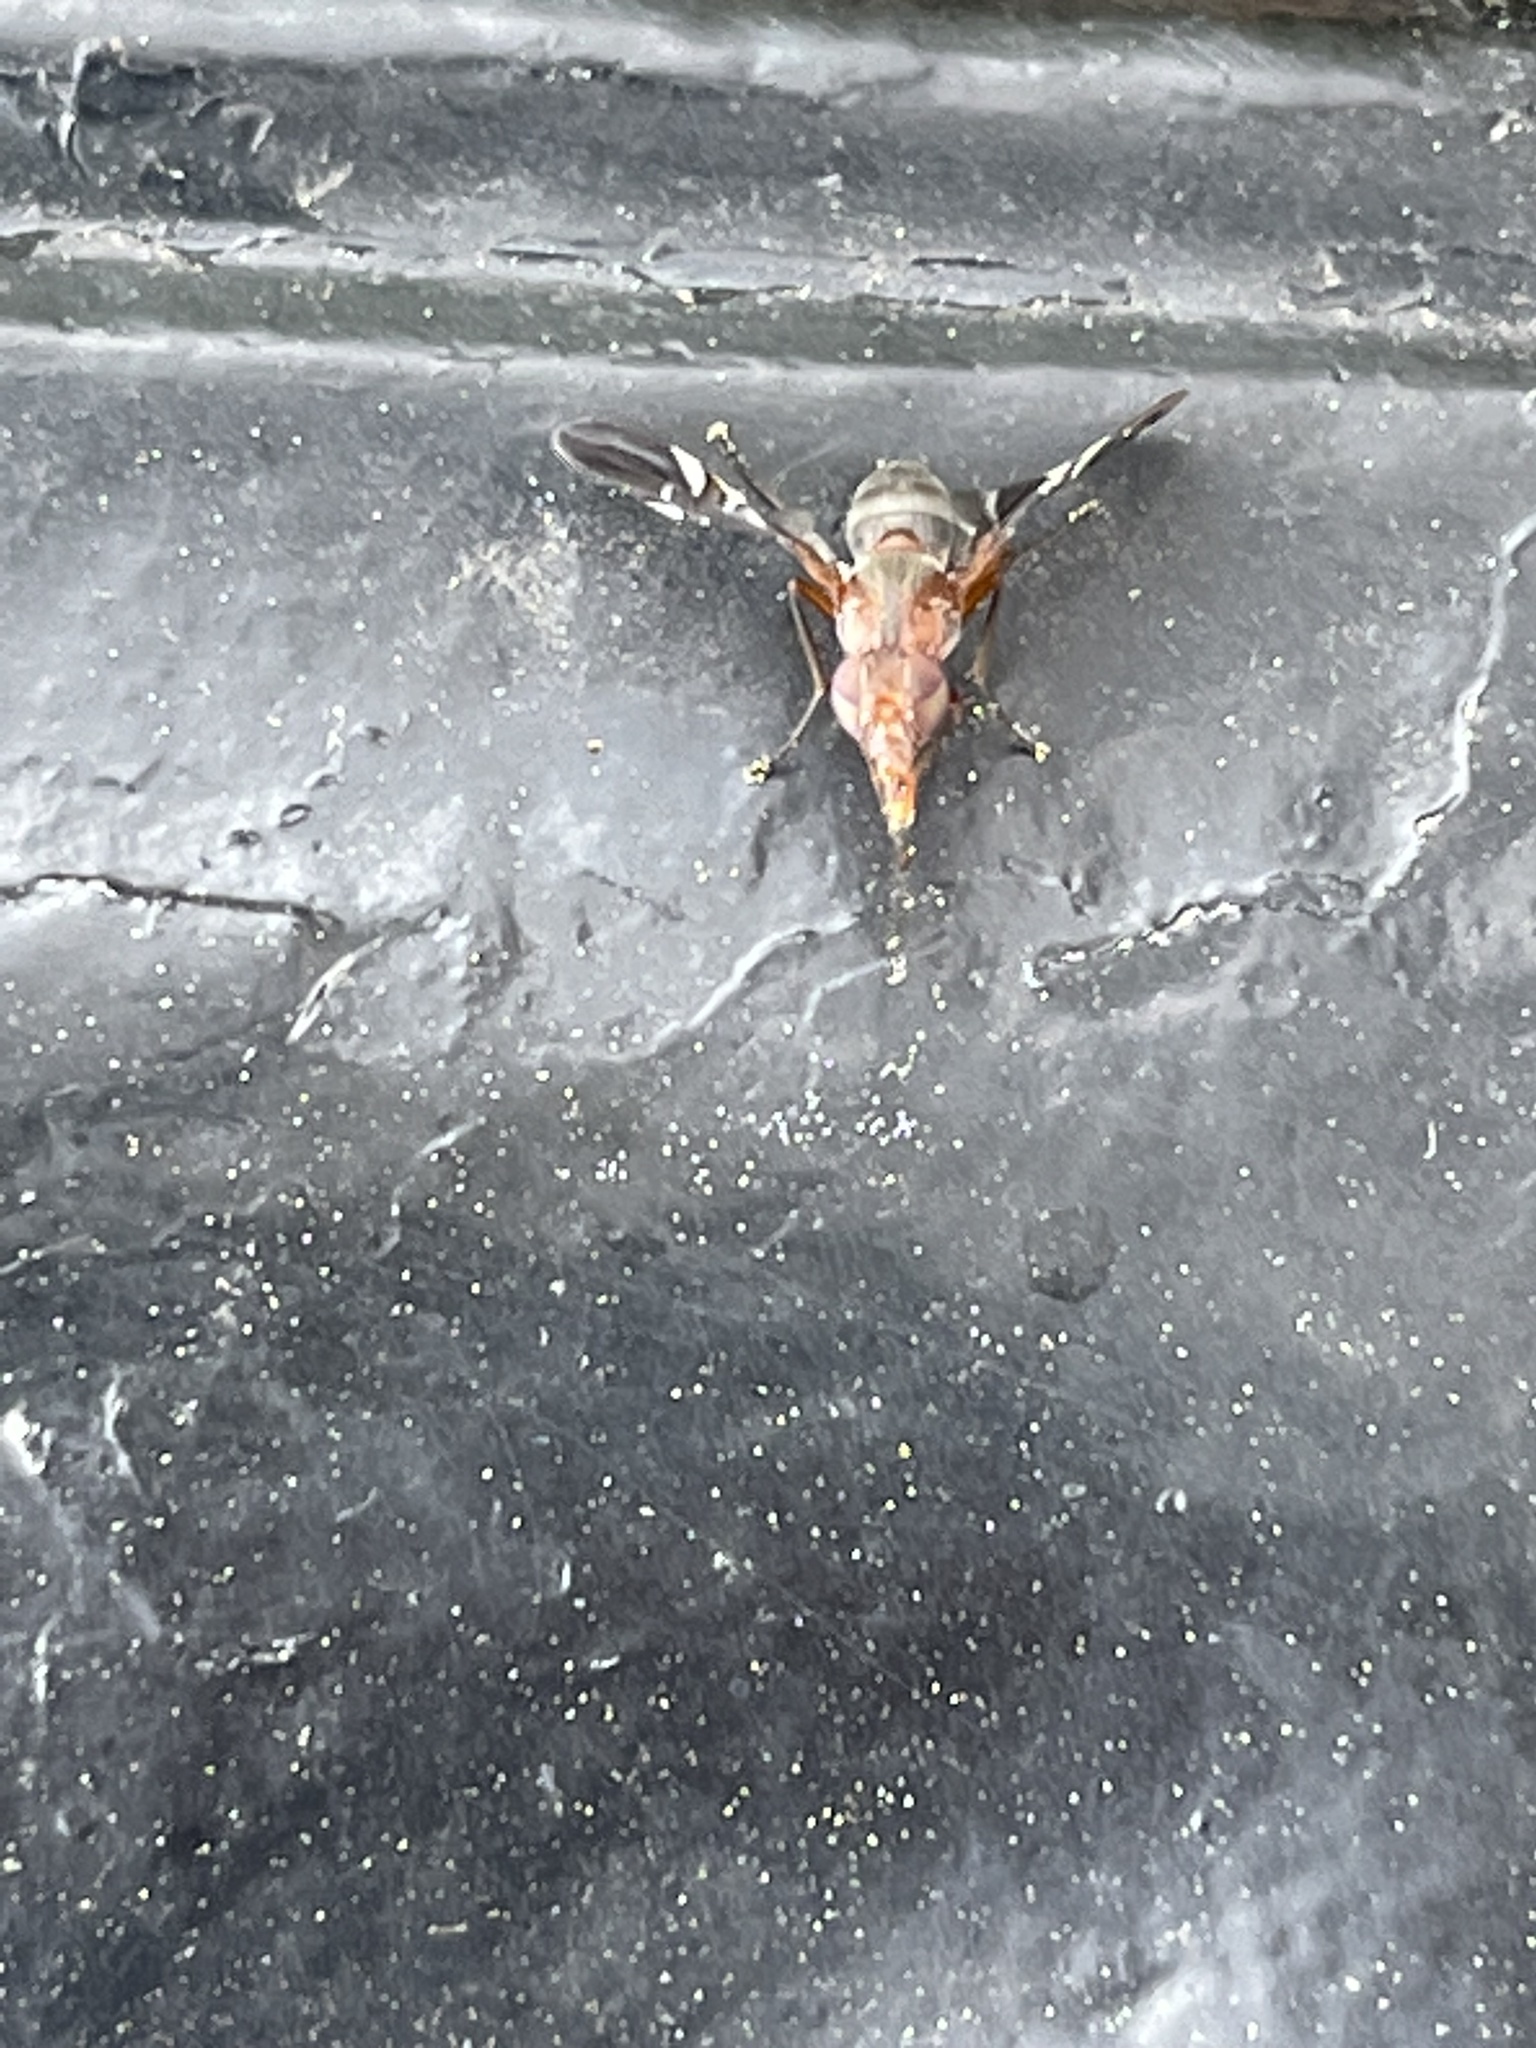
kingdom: Animalia
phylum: Arthropoda
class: Insecta
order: Diptera
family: Ulidiidae
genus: Delphinia
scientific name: Delphinia picta
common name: Common picture-winged fly
